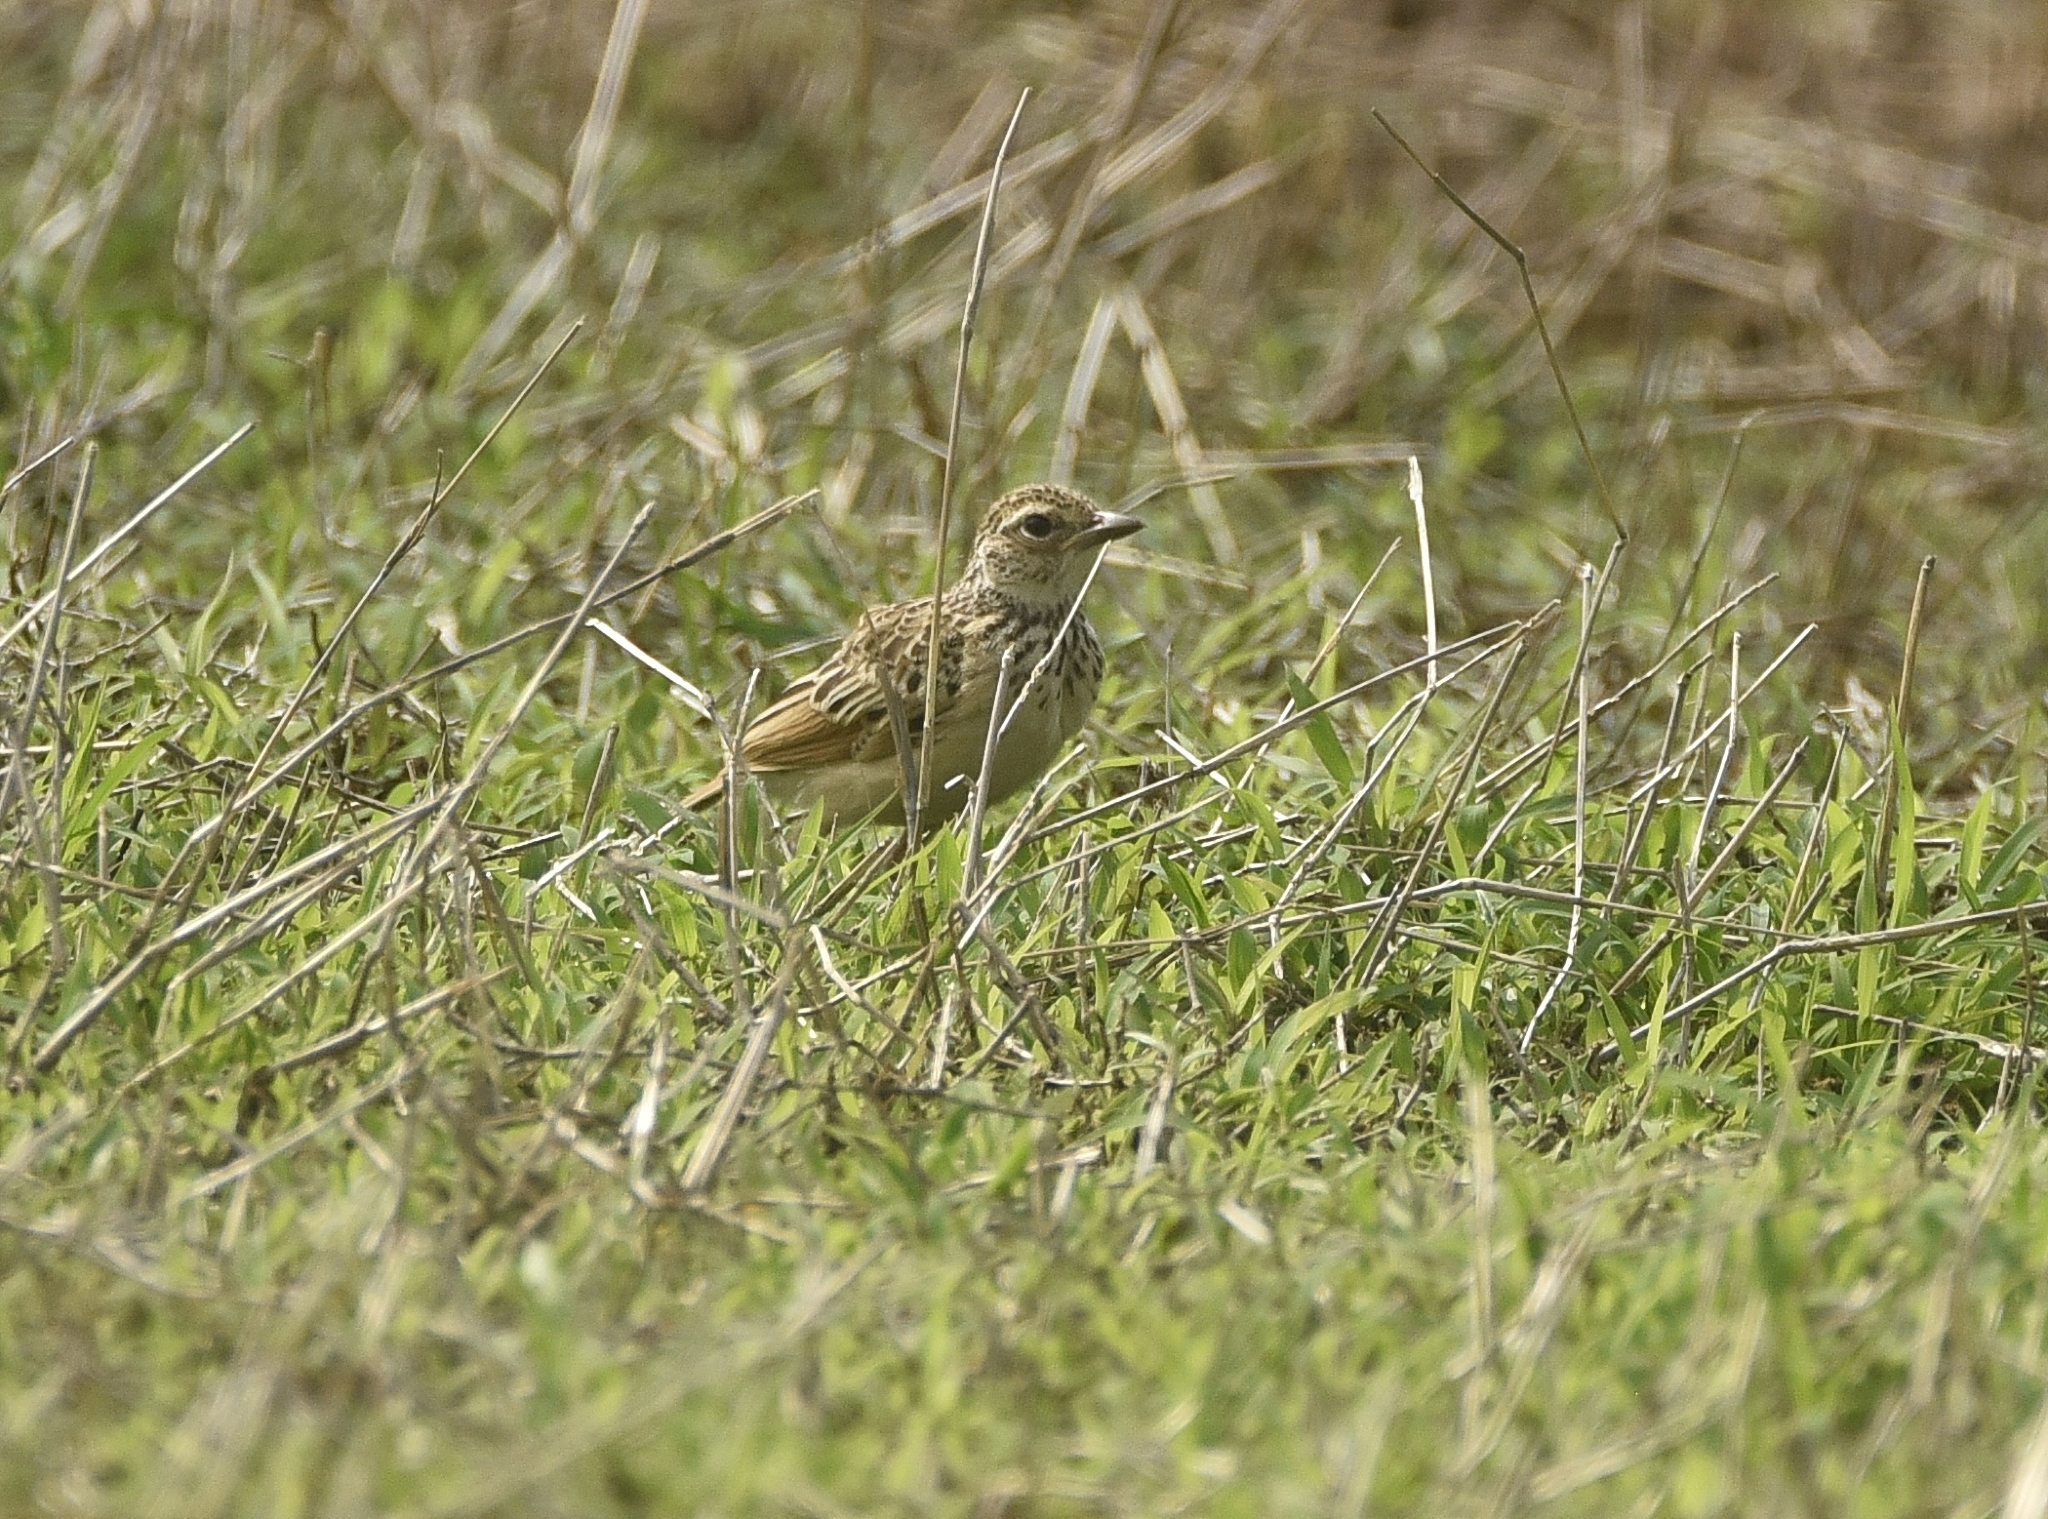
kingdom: Animalia
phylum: Chordata
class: Aves
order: Passeriformes
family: Alaudidae
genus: Mirafra
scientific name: Mirafra affinis
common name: Jerdon's bushlark
